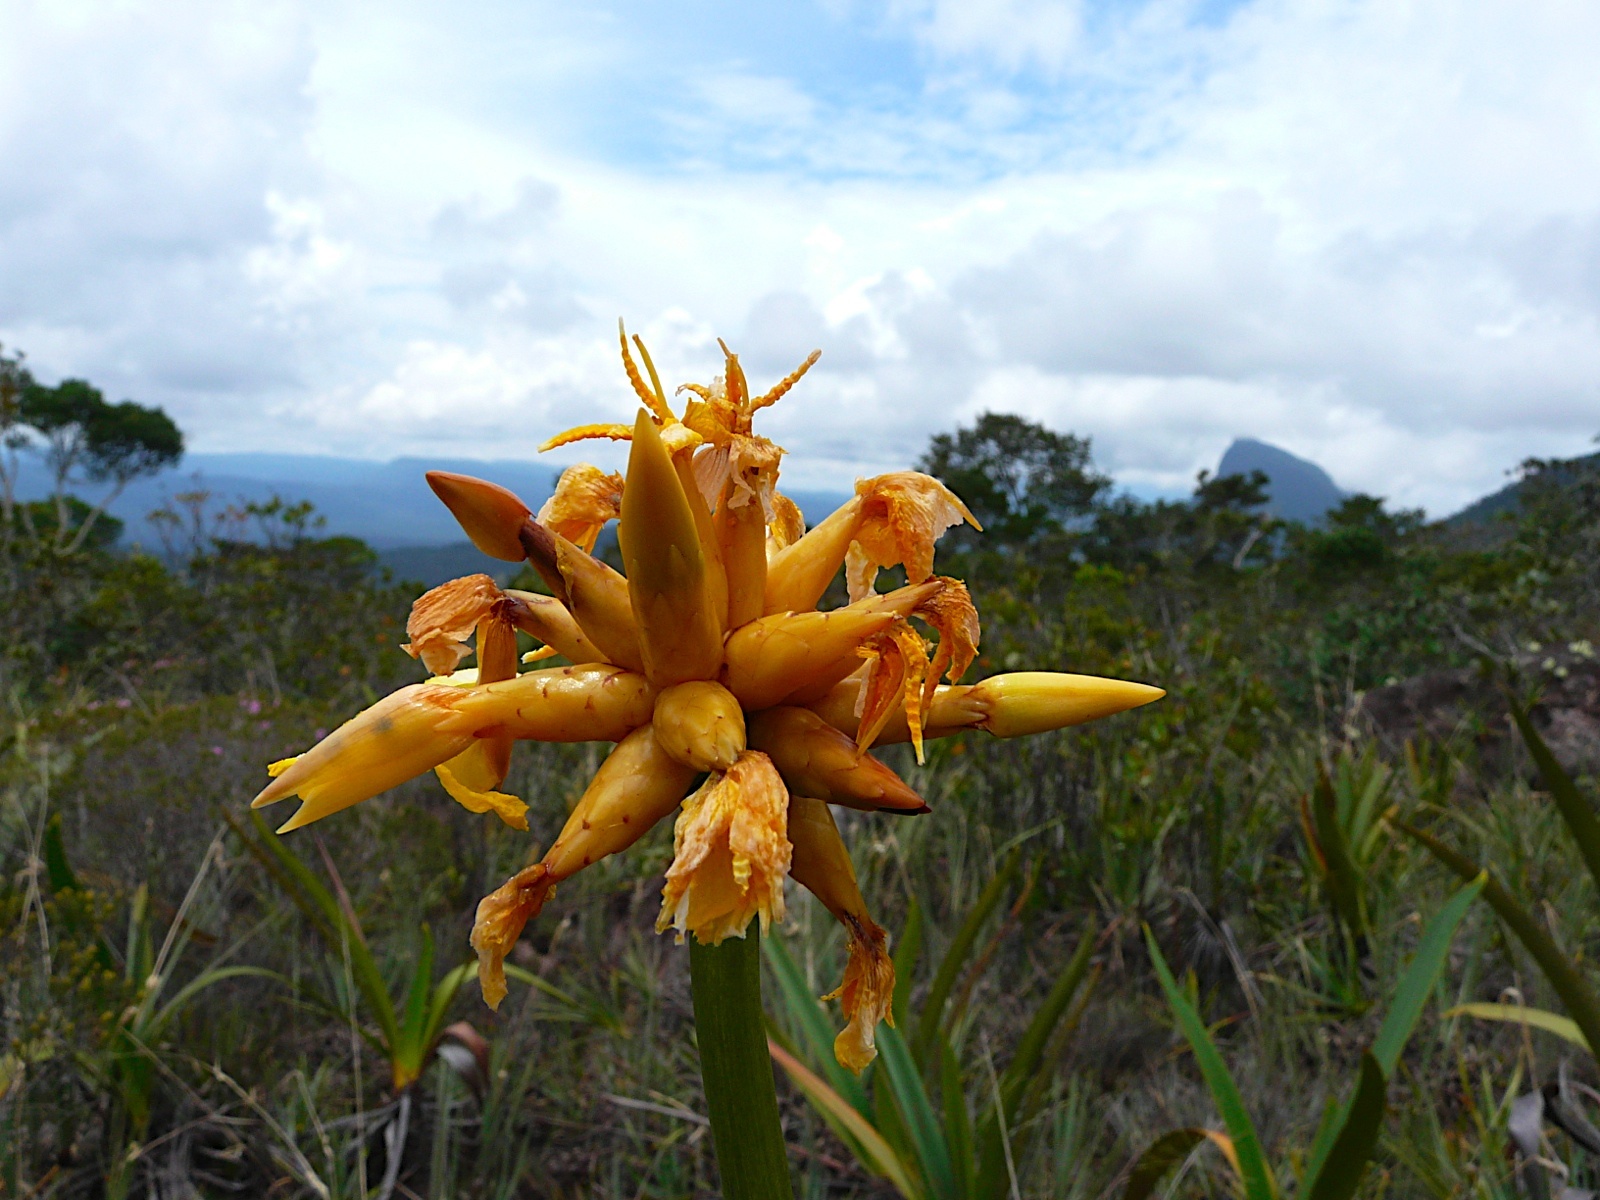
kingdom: Plantae
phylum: Tracheophyta
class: Liliopsida
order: Poales
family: Rapateaceae
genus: Stegolepis
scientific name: Stegolepis guianensis
